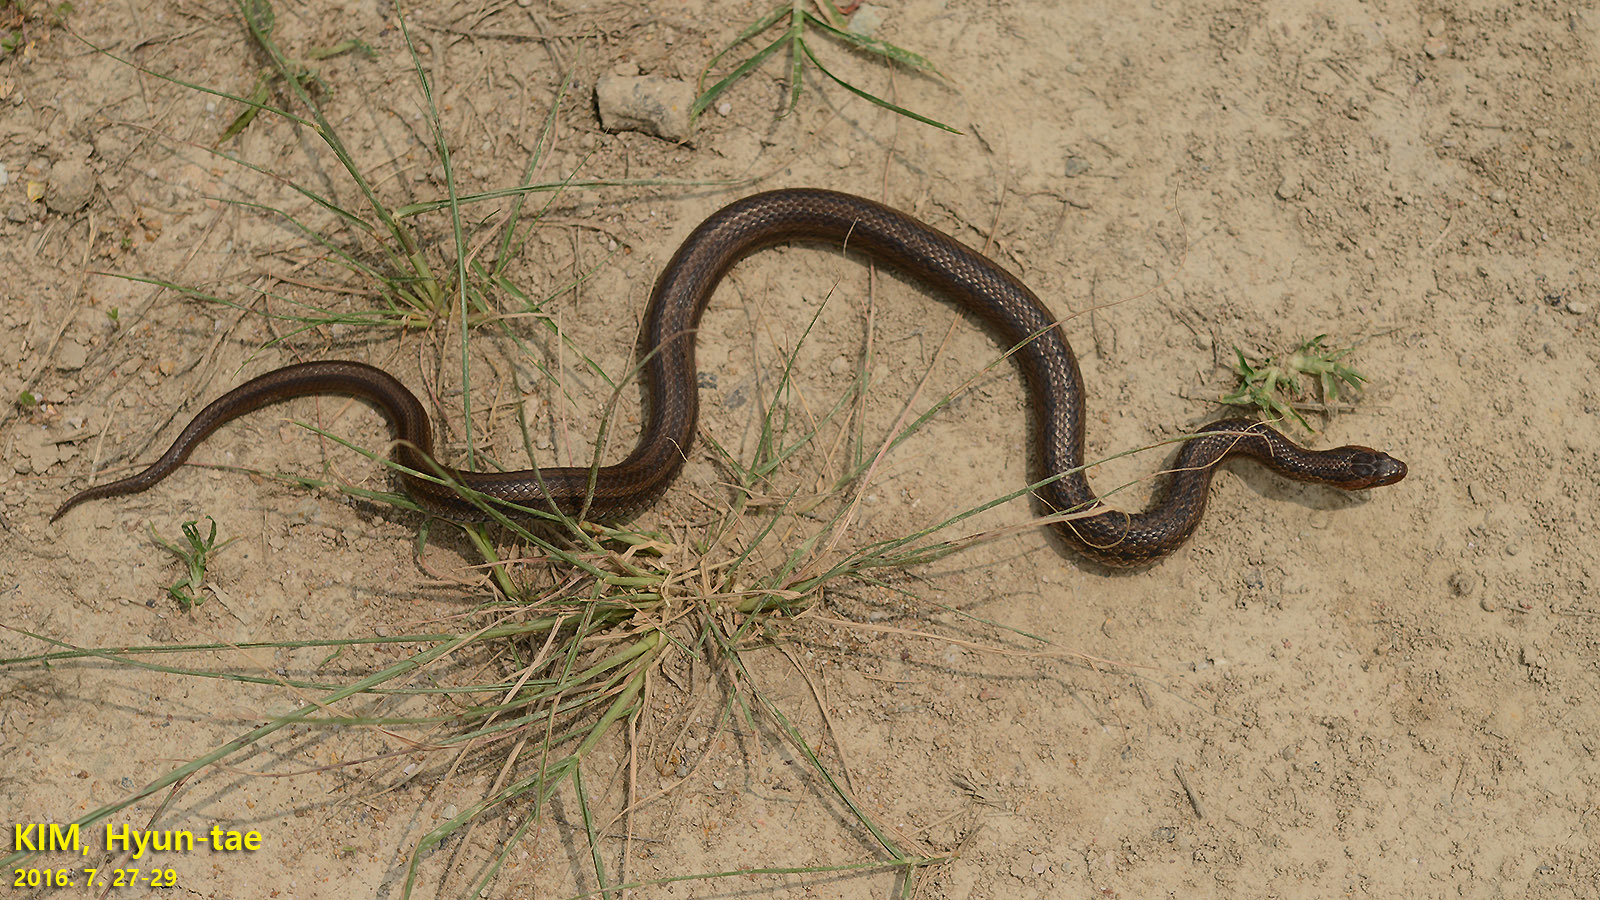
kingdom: Animalia
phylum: Chordata
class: Squamata
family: Colubridae
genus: Oocatochus
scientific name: Oocatochus rufodorsatus
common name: Frog-eating rat snake
